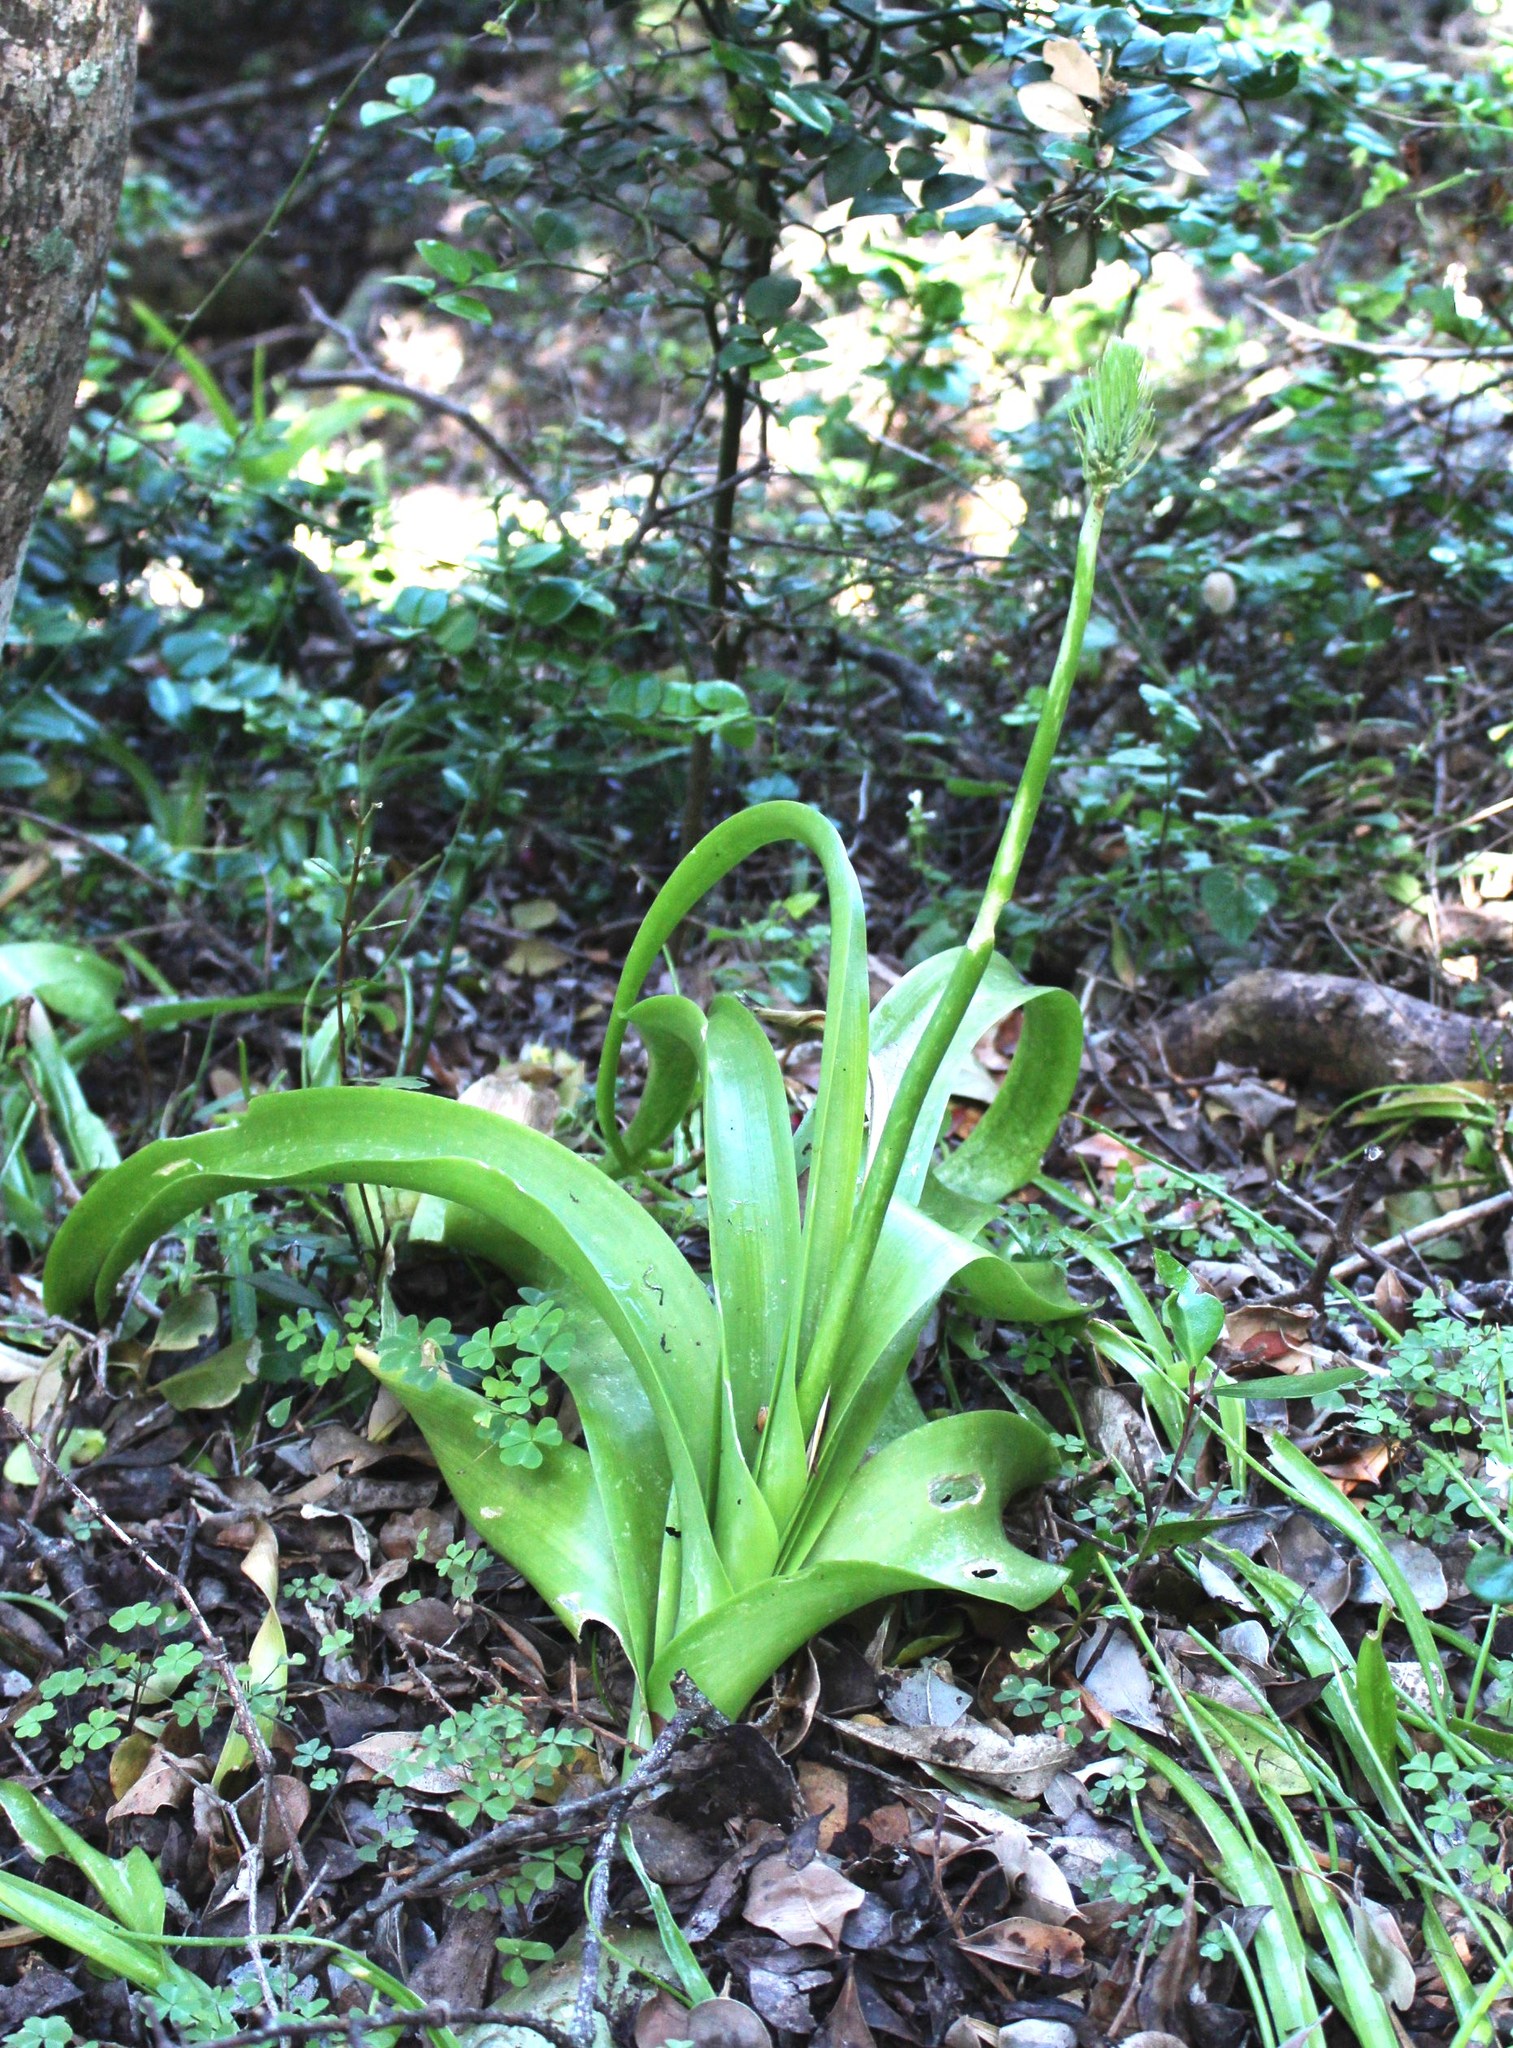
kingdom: Plantae
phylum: Tracheophyta
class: Liliopsida
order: Asparagales
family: Asparagaceae
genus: Albuca
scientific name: Albuca bracteata
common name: Sea-onion
